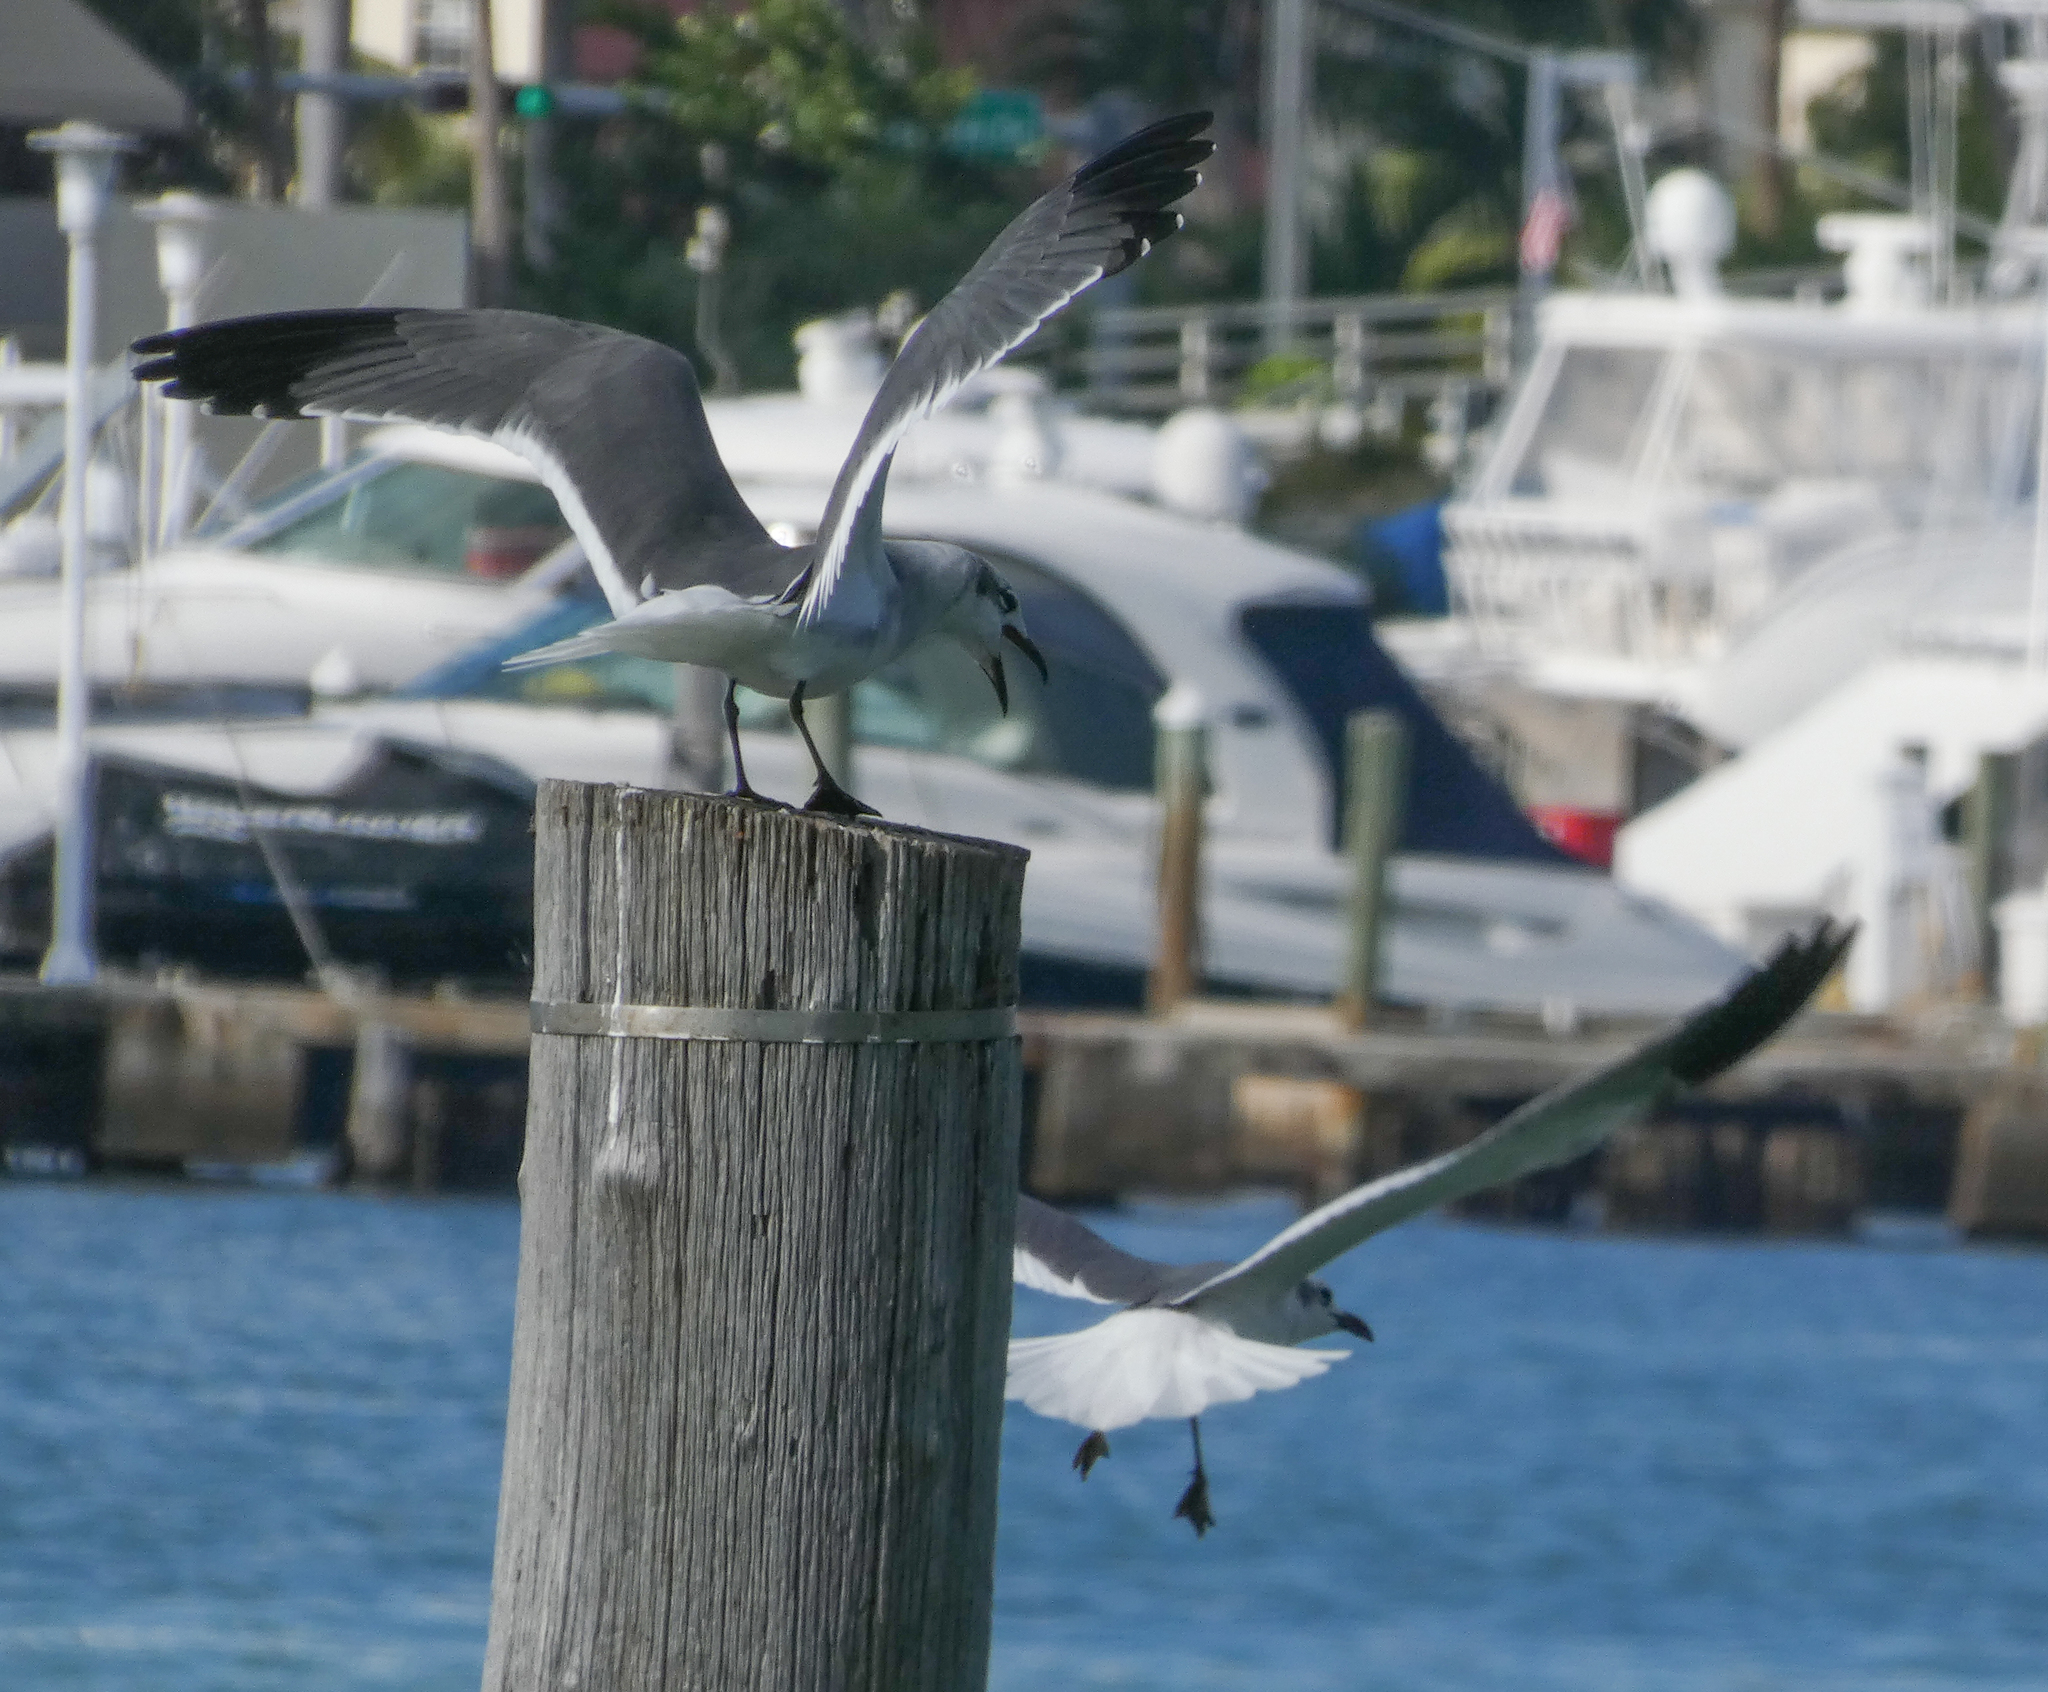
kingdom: Animalia
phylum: Chordata
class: Aves
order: Charadriiformes
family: Laridae
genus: Leucophaeus
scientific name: Leucophaeus atricilla
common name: Laughing gull
